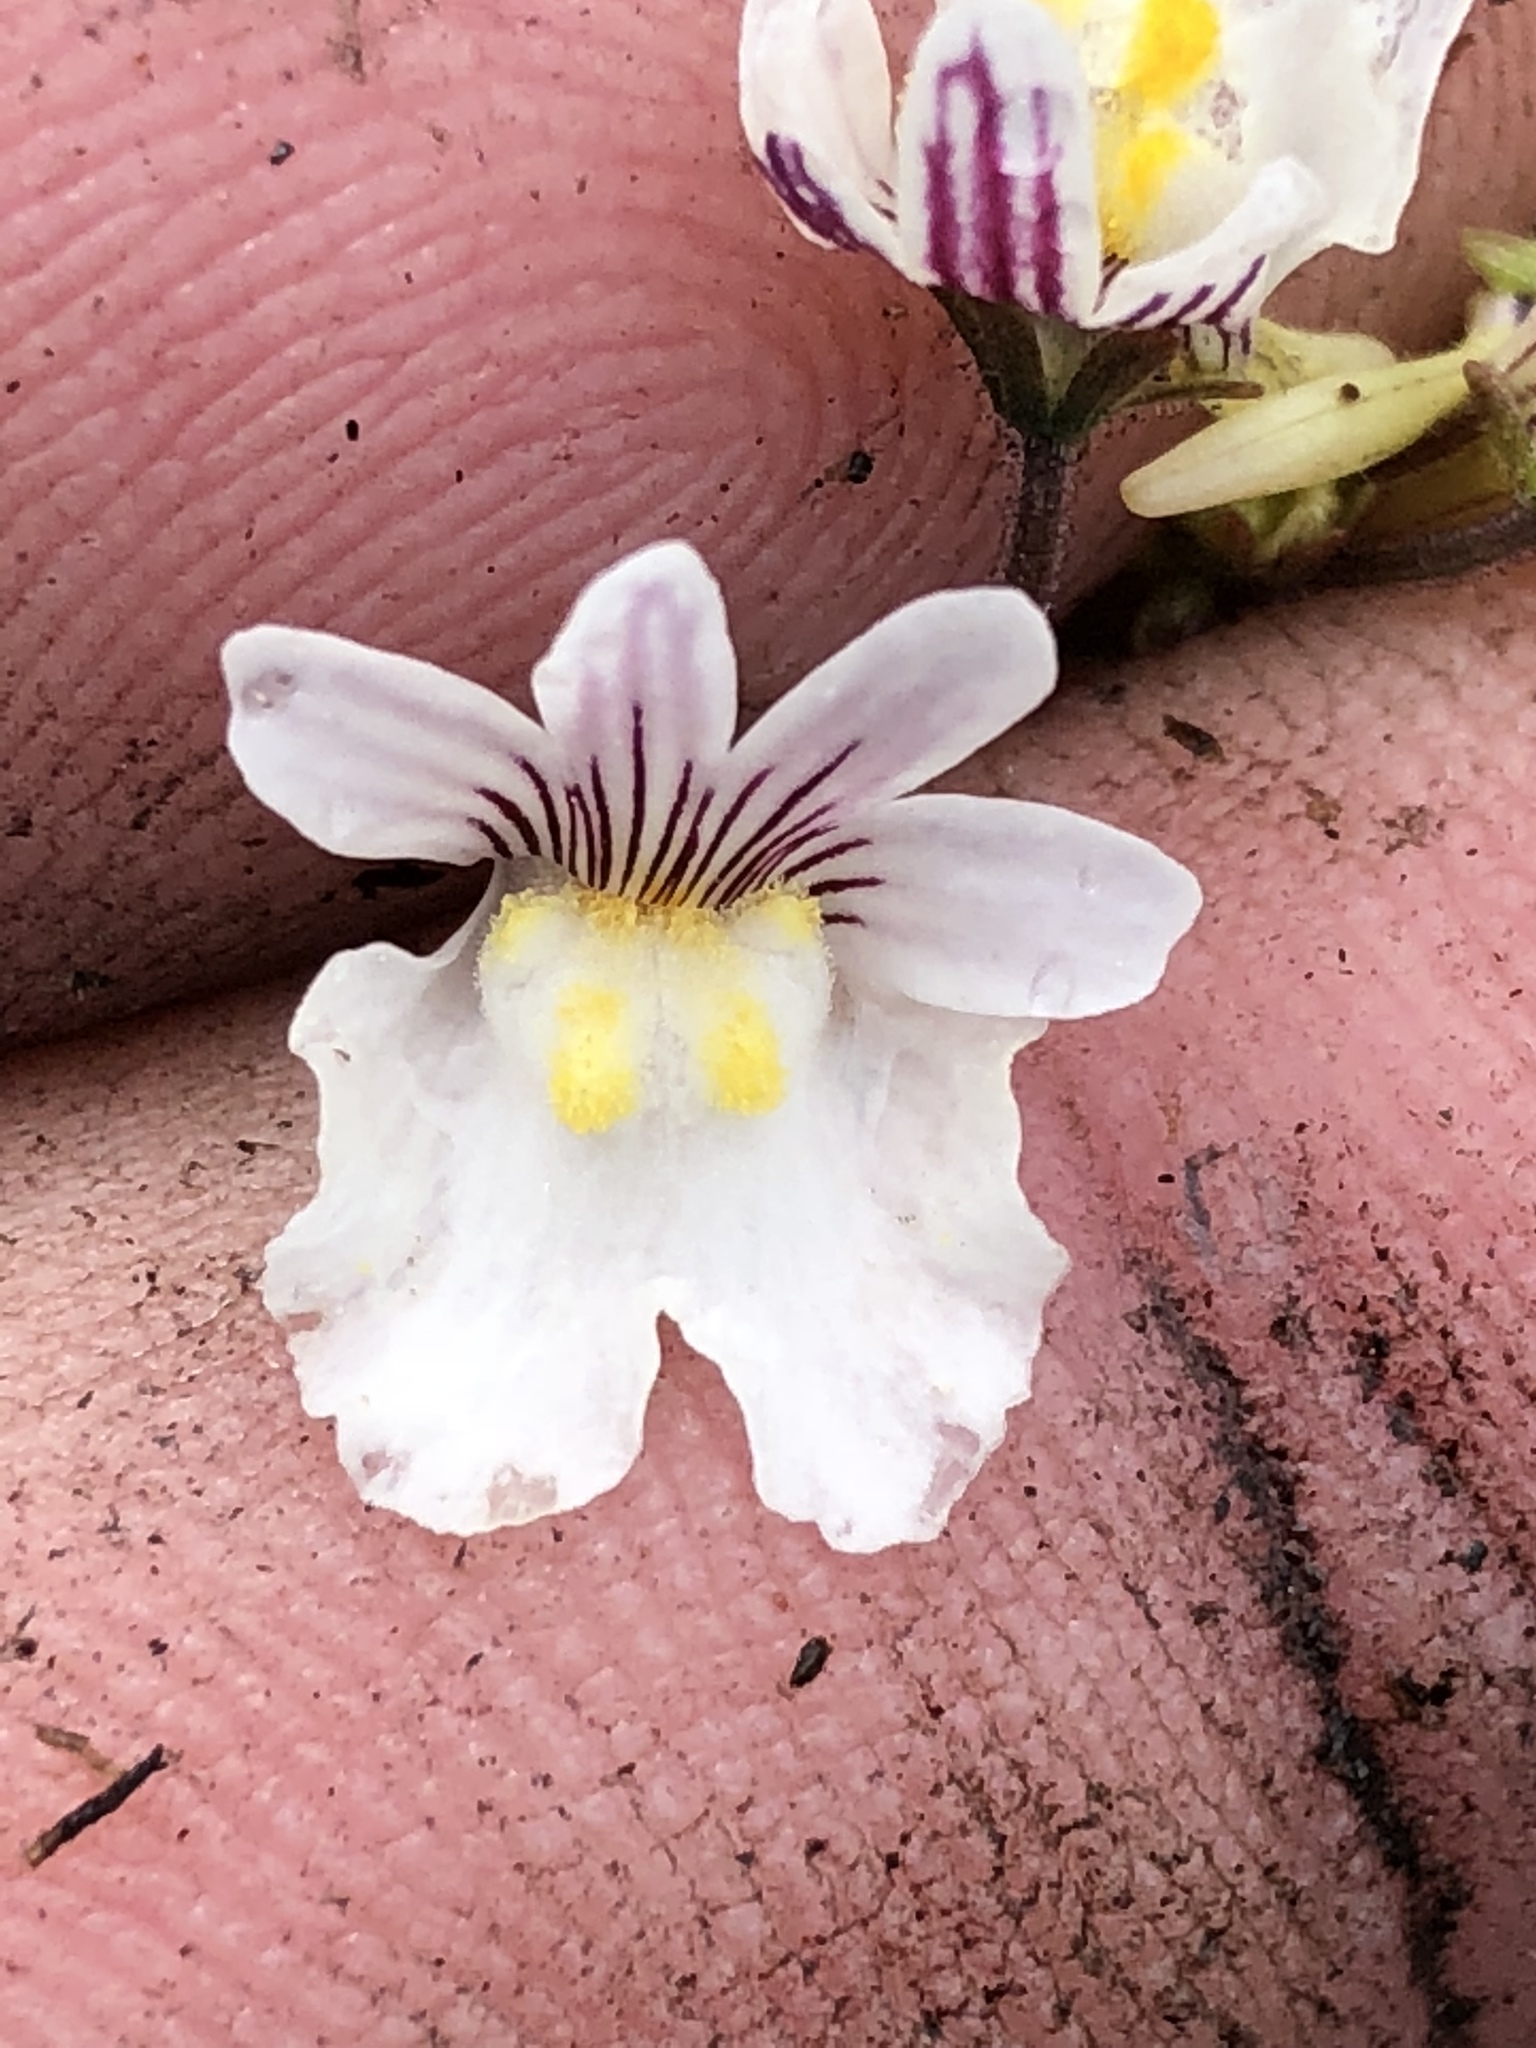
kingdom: Plantae
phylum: Tracheophyta
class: Magnoliopsida
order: Lamiales
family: Scrophulariaceae
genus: Nemesia
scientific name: Nemesia bicornis
